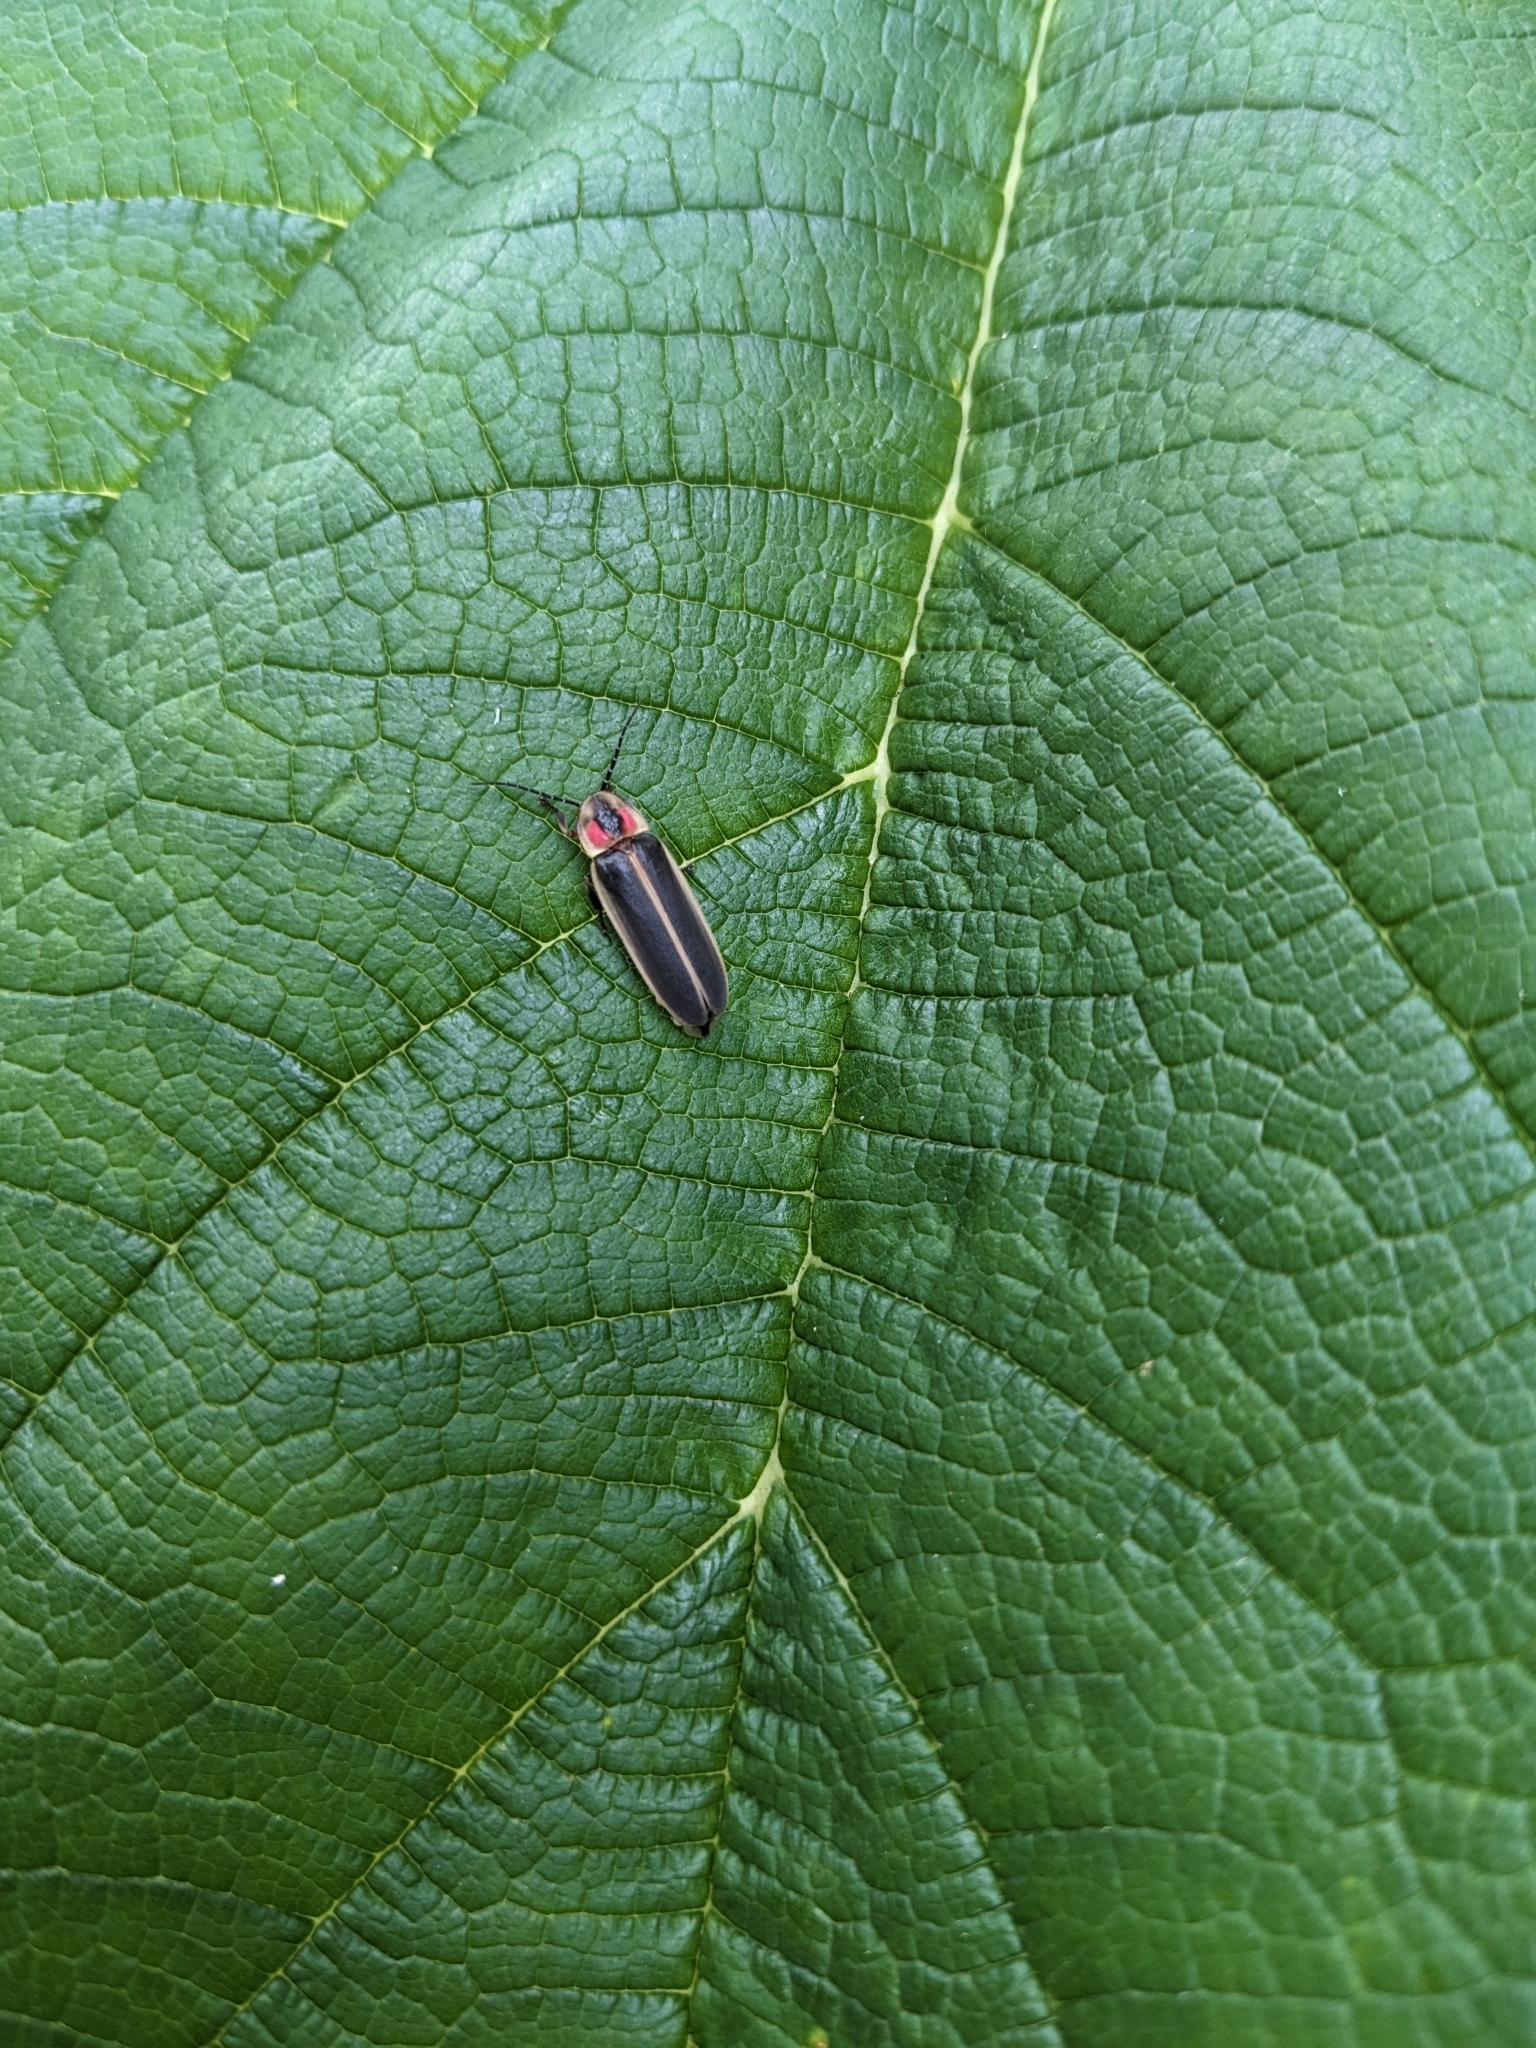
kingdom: Animalia
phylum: Arthropoda
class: Insecta
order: Coleoptera
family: Lampyridae
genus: Photinus
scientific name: Photinus pyralis
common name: Big dipper firefly
